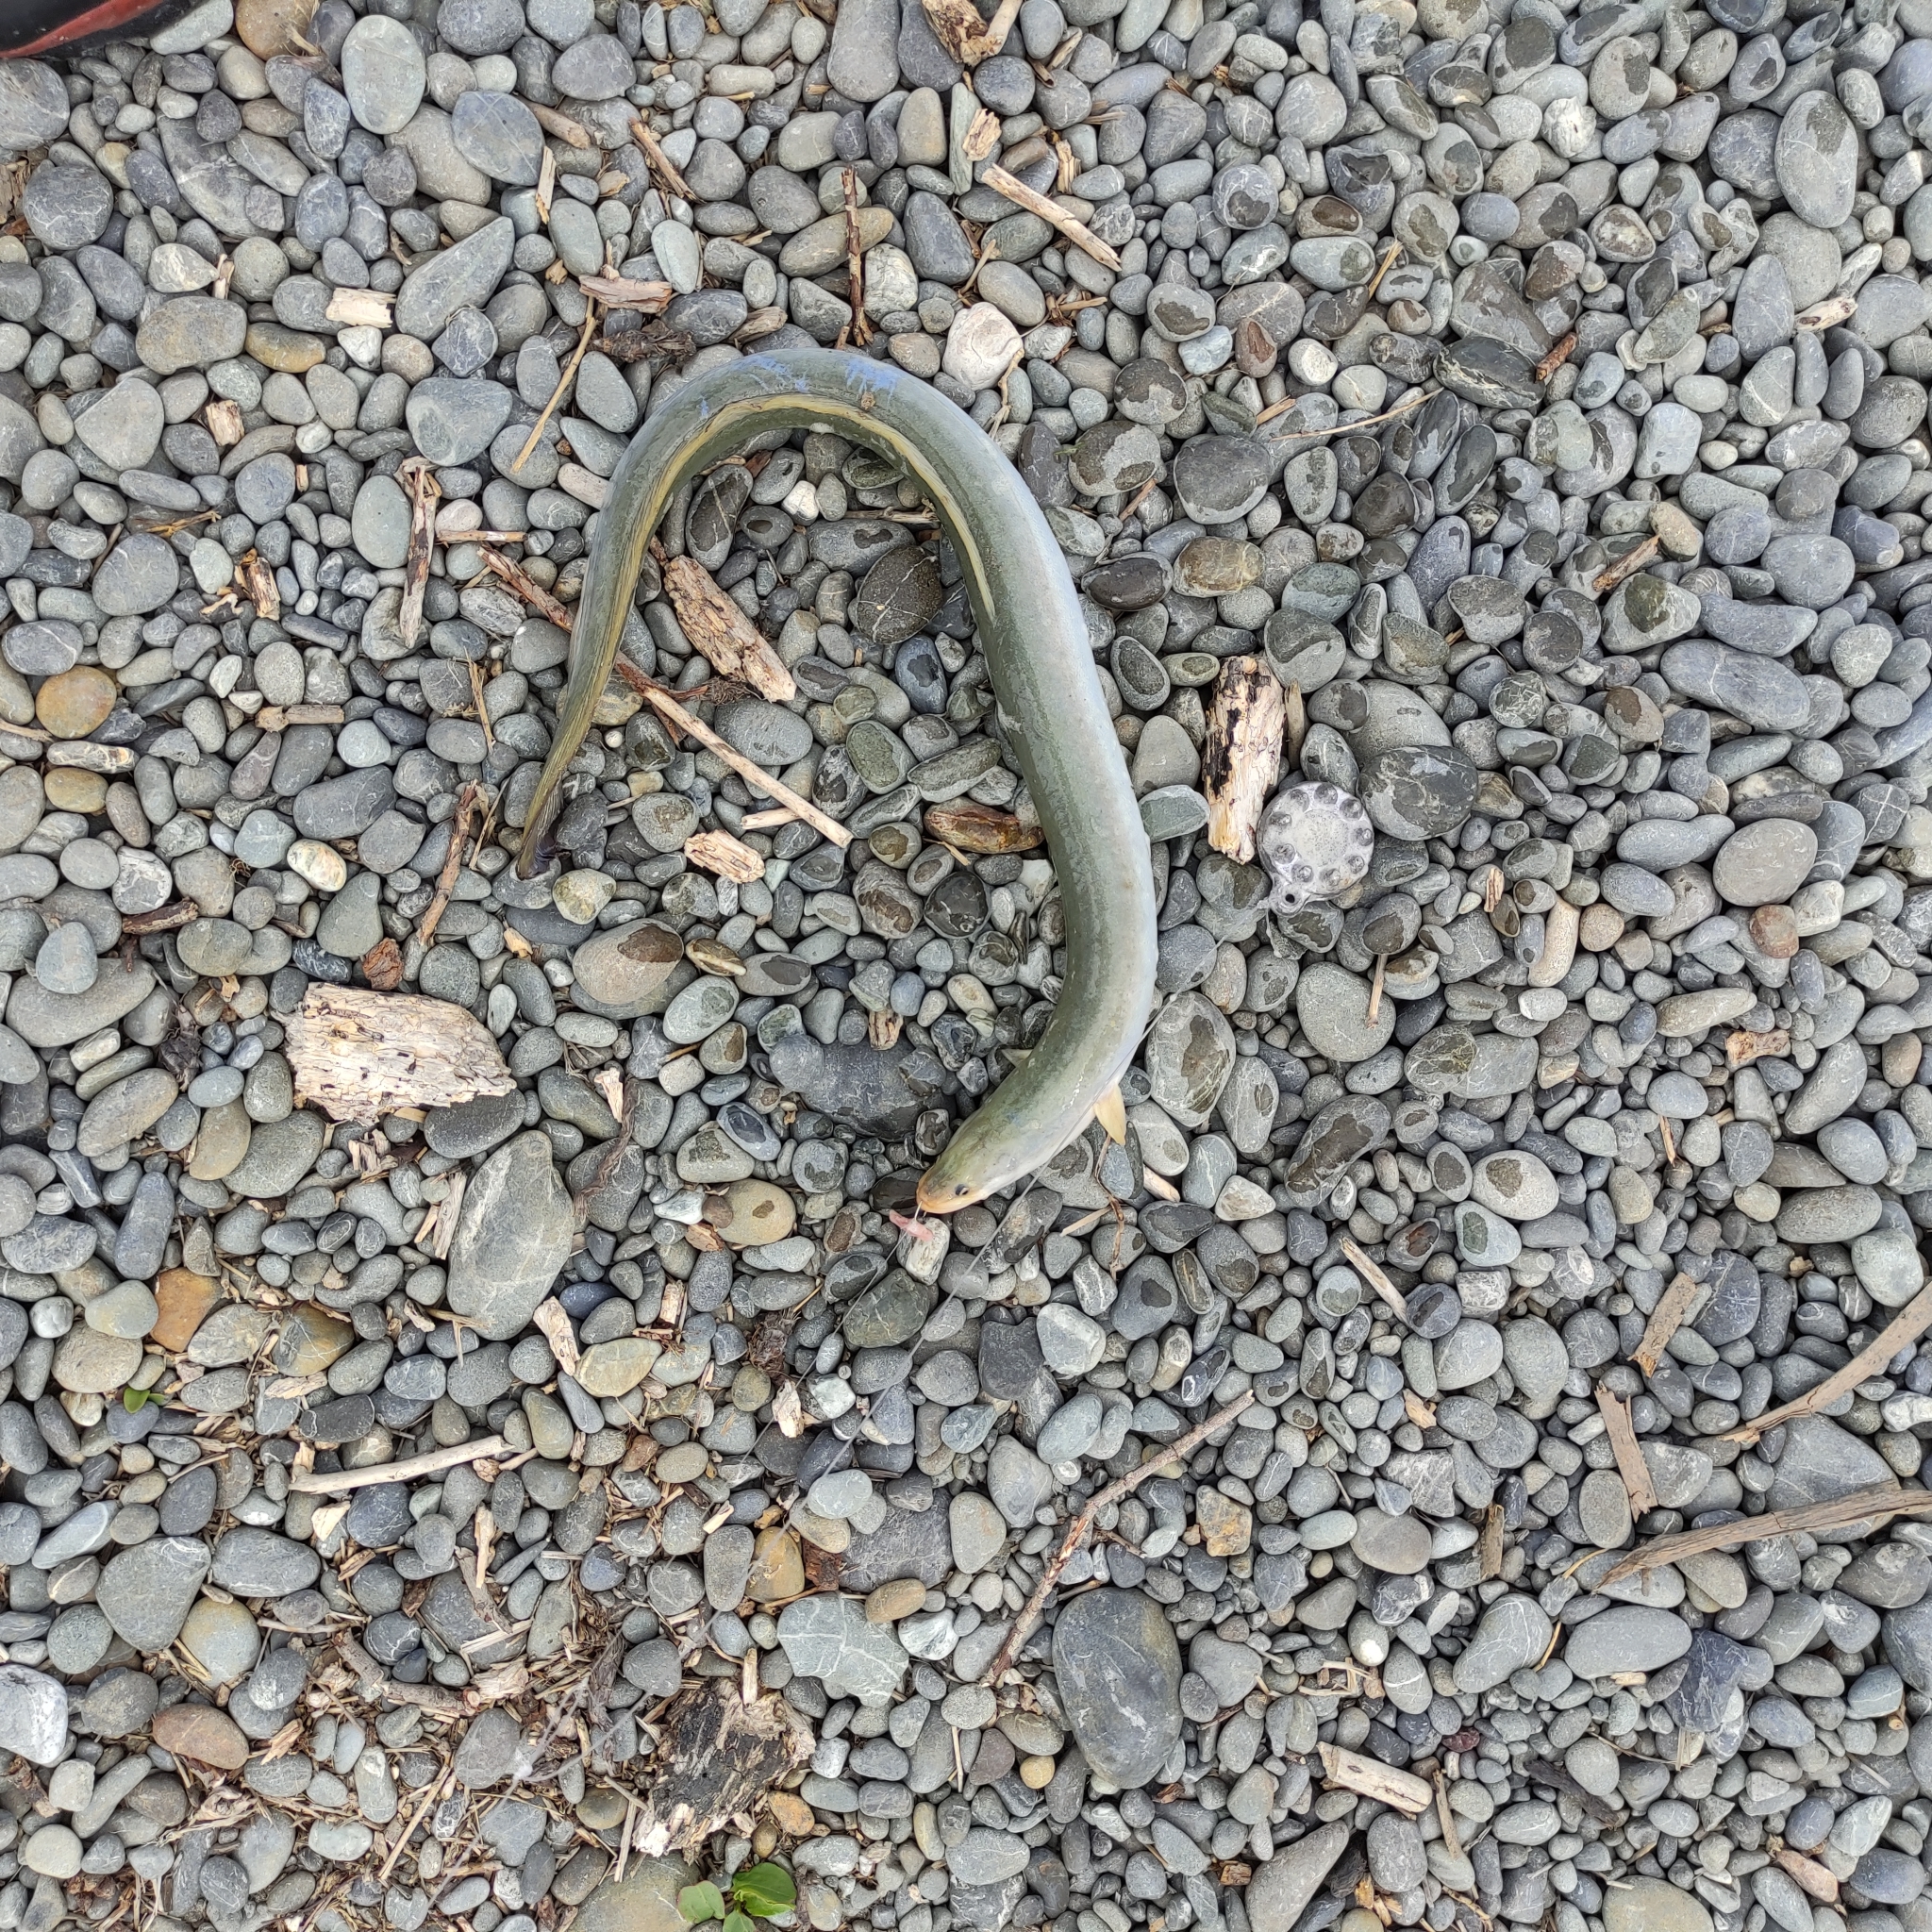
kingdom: Animalia
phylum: Chordata
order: Anguilliformes
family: Anguillidae
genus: Anguilla
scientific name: Anguilla australis
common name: Shortfin eel
